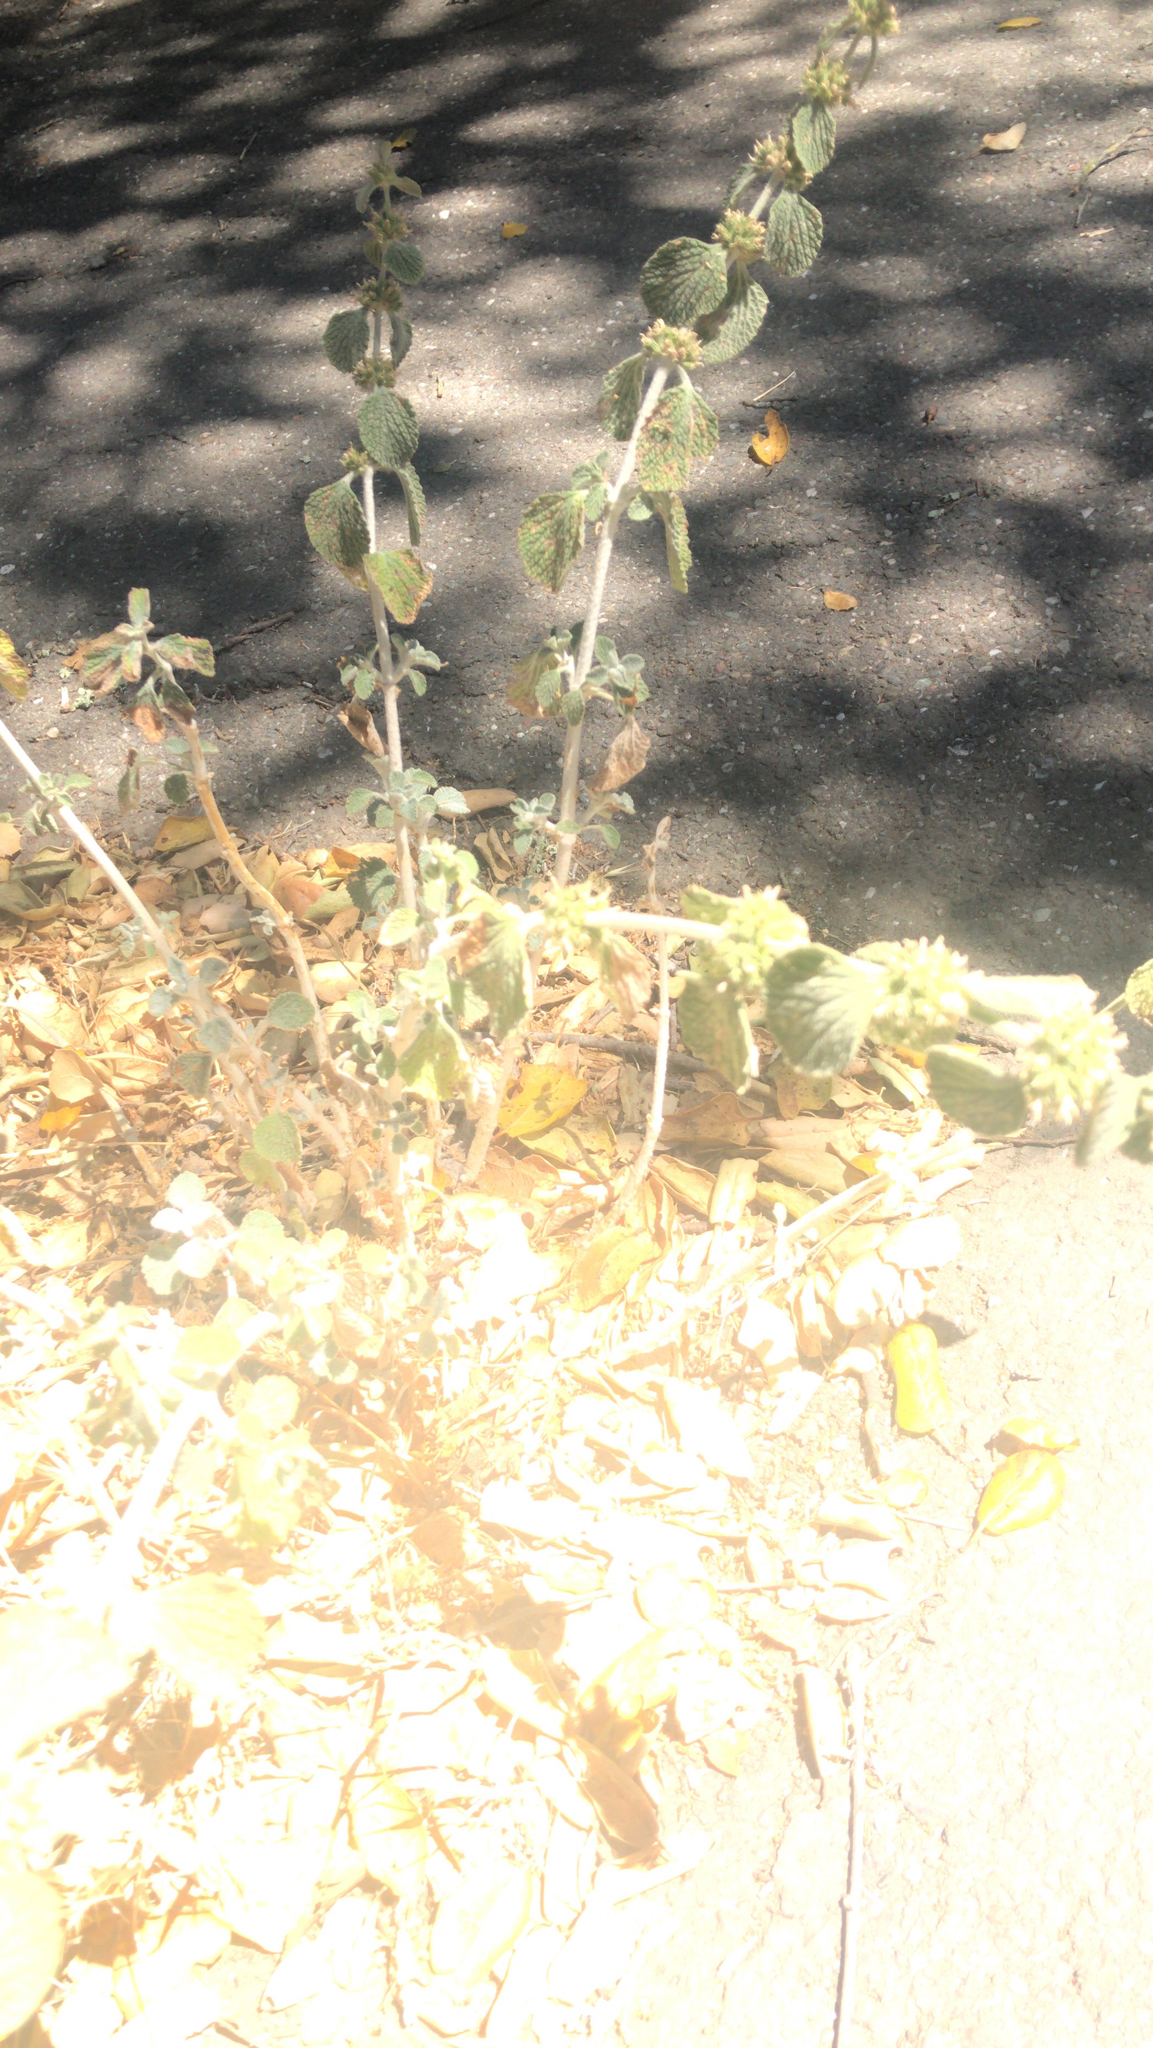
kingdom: Plantae
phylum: Tracheophyta
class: Magnoliopsida
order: Lamiales
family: Lamiaceae
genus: Marrubium
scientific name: Marrubium vulgare
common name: Horehound
